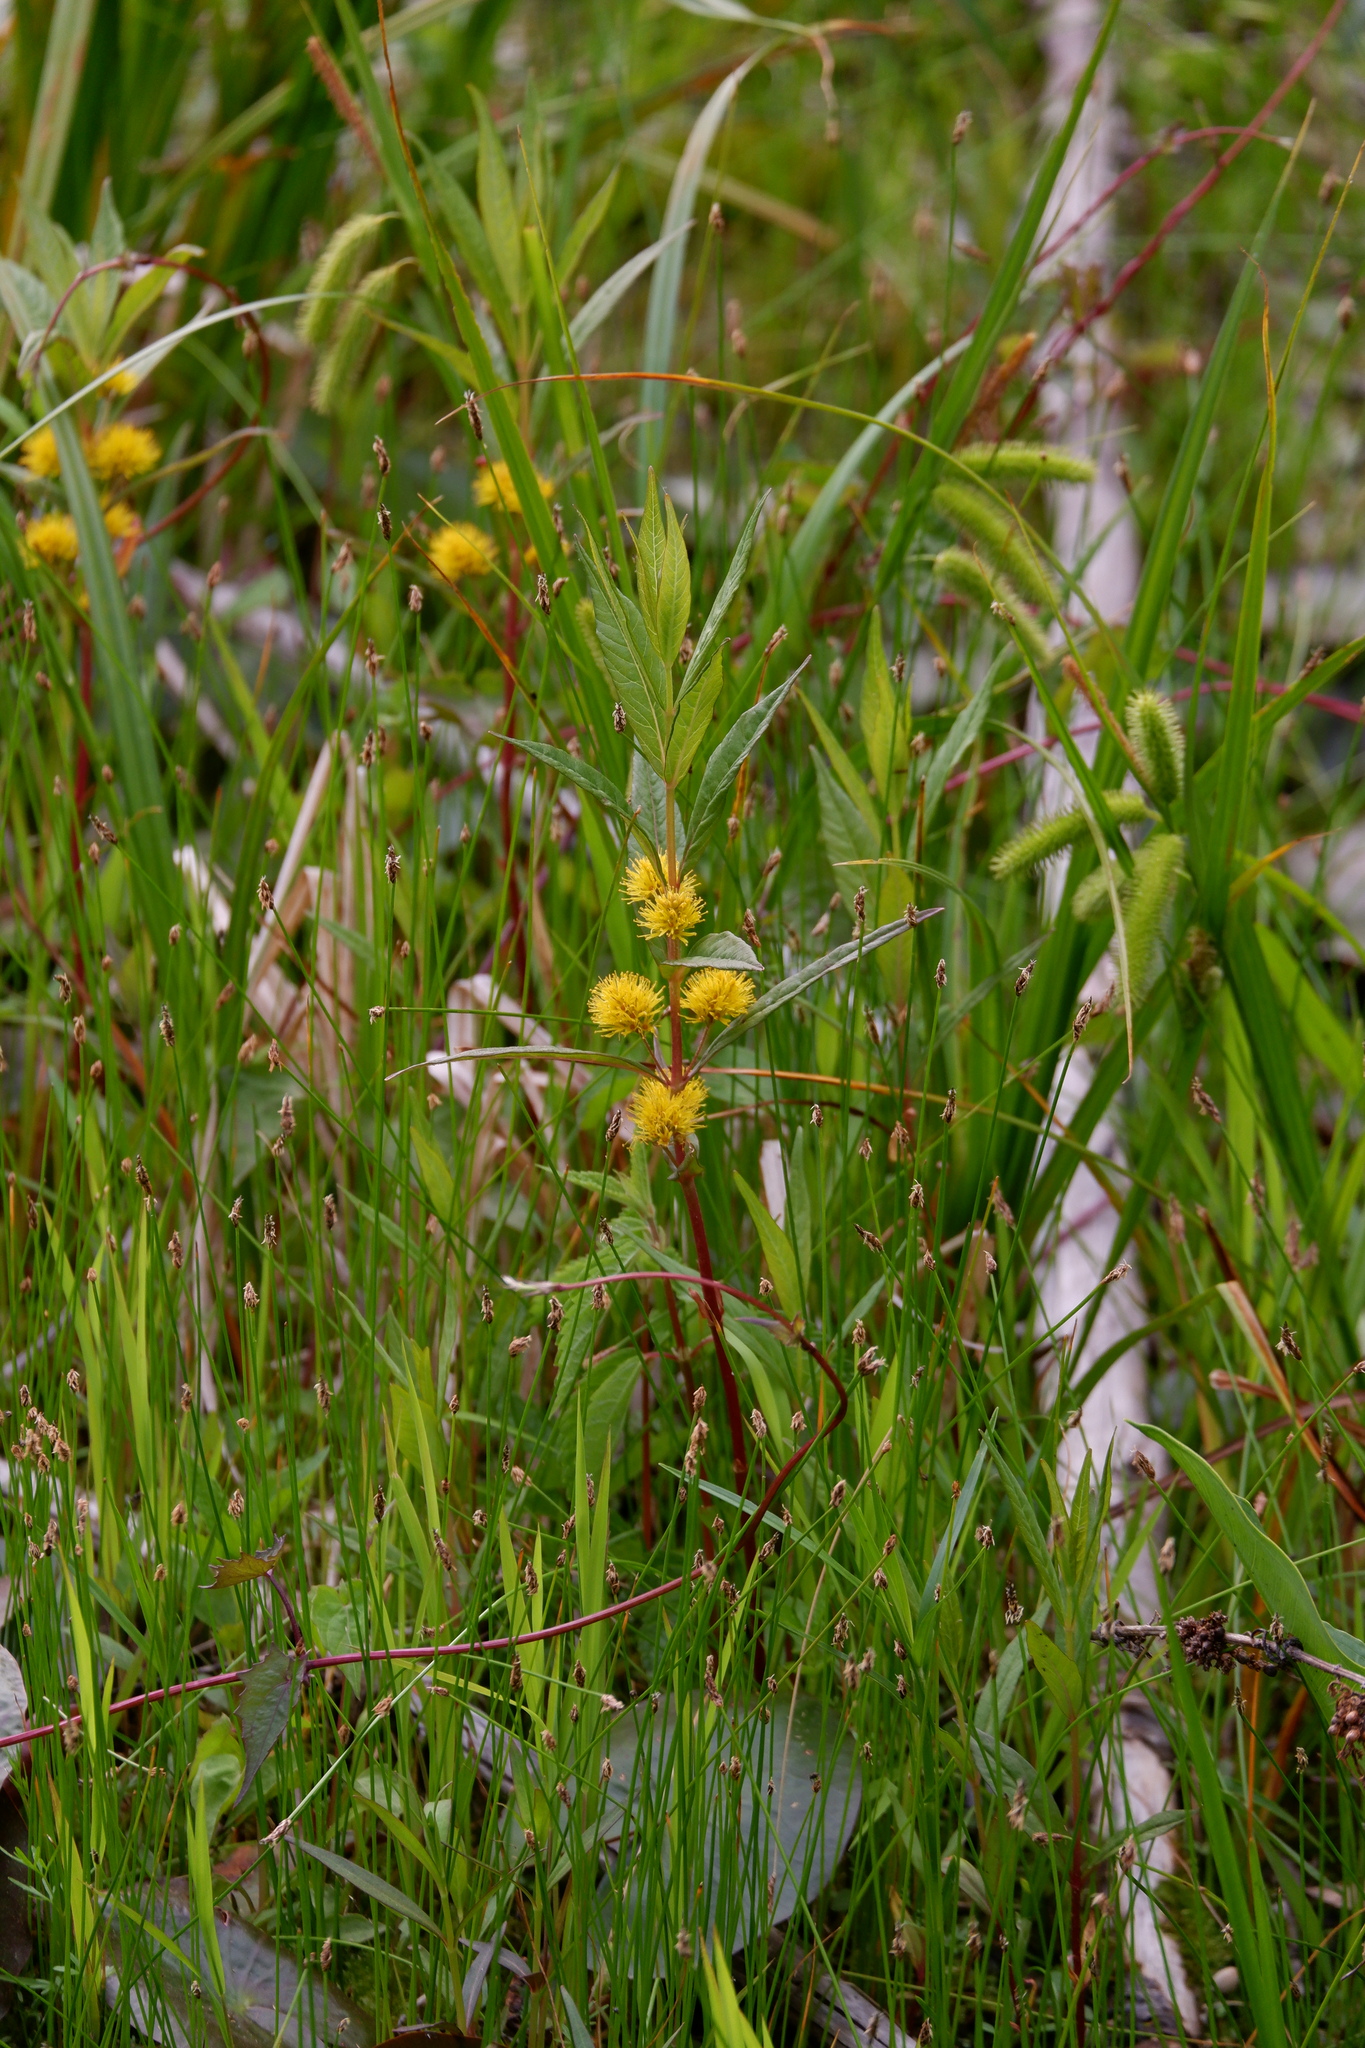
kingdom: Plantae
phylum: Tracheophyta
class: Magnoliopsida
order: Ericales
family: Primulaceae
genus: Lysimachia
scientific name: Lysimachia thyrsiflora
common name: Tufted loosestrife
